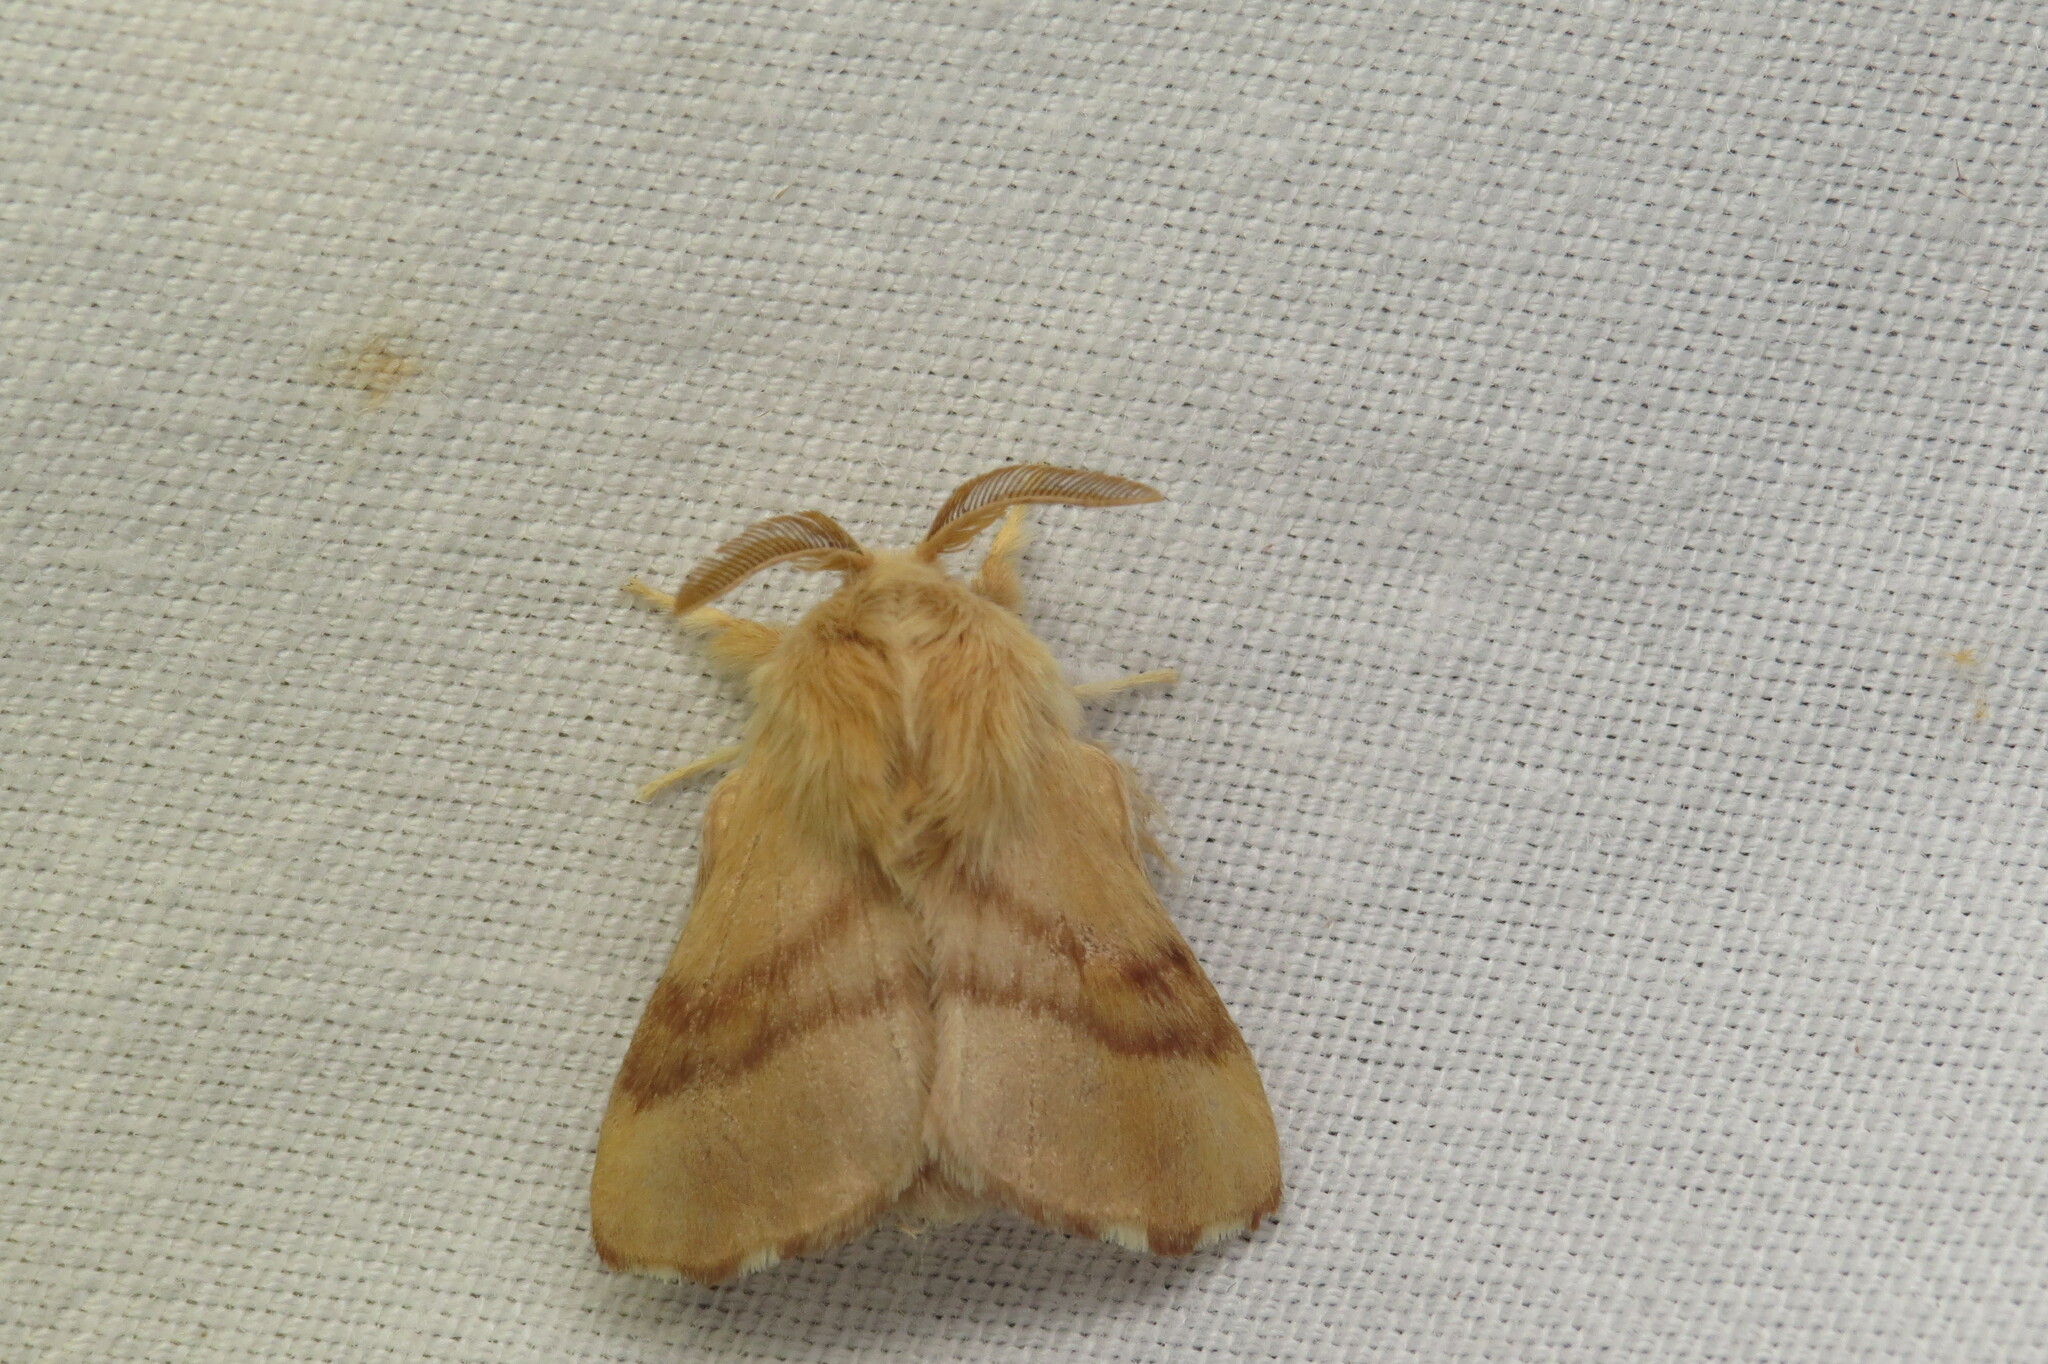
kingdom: Animalia
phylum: Arthropoda
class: Insecta
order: Lepidoptera
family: Lasiocampidae
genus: Malacosoma
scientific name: Malacosoma disstria
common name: Forest tent caterpillar
